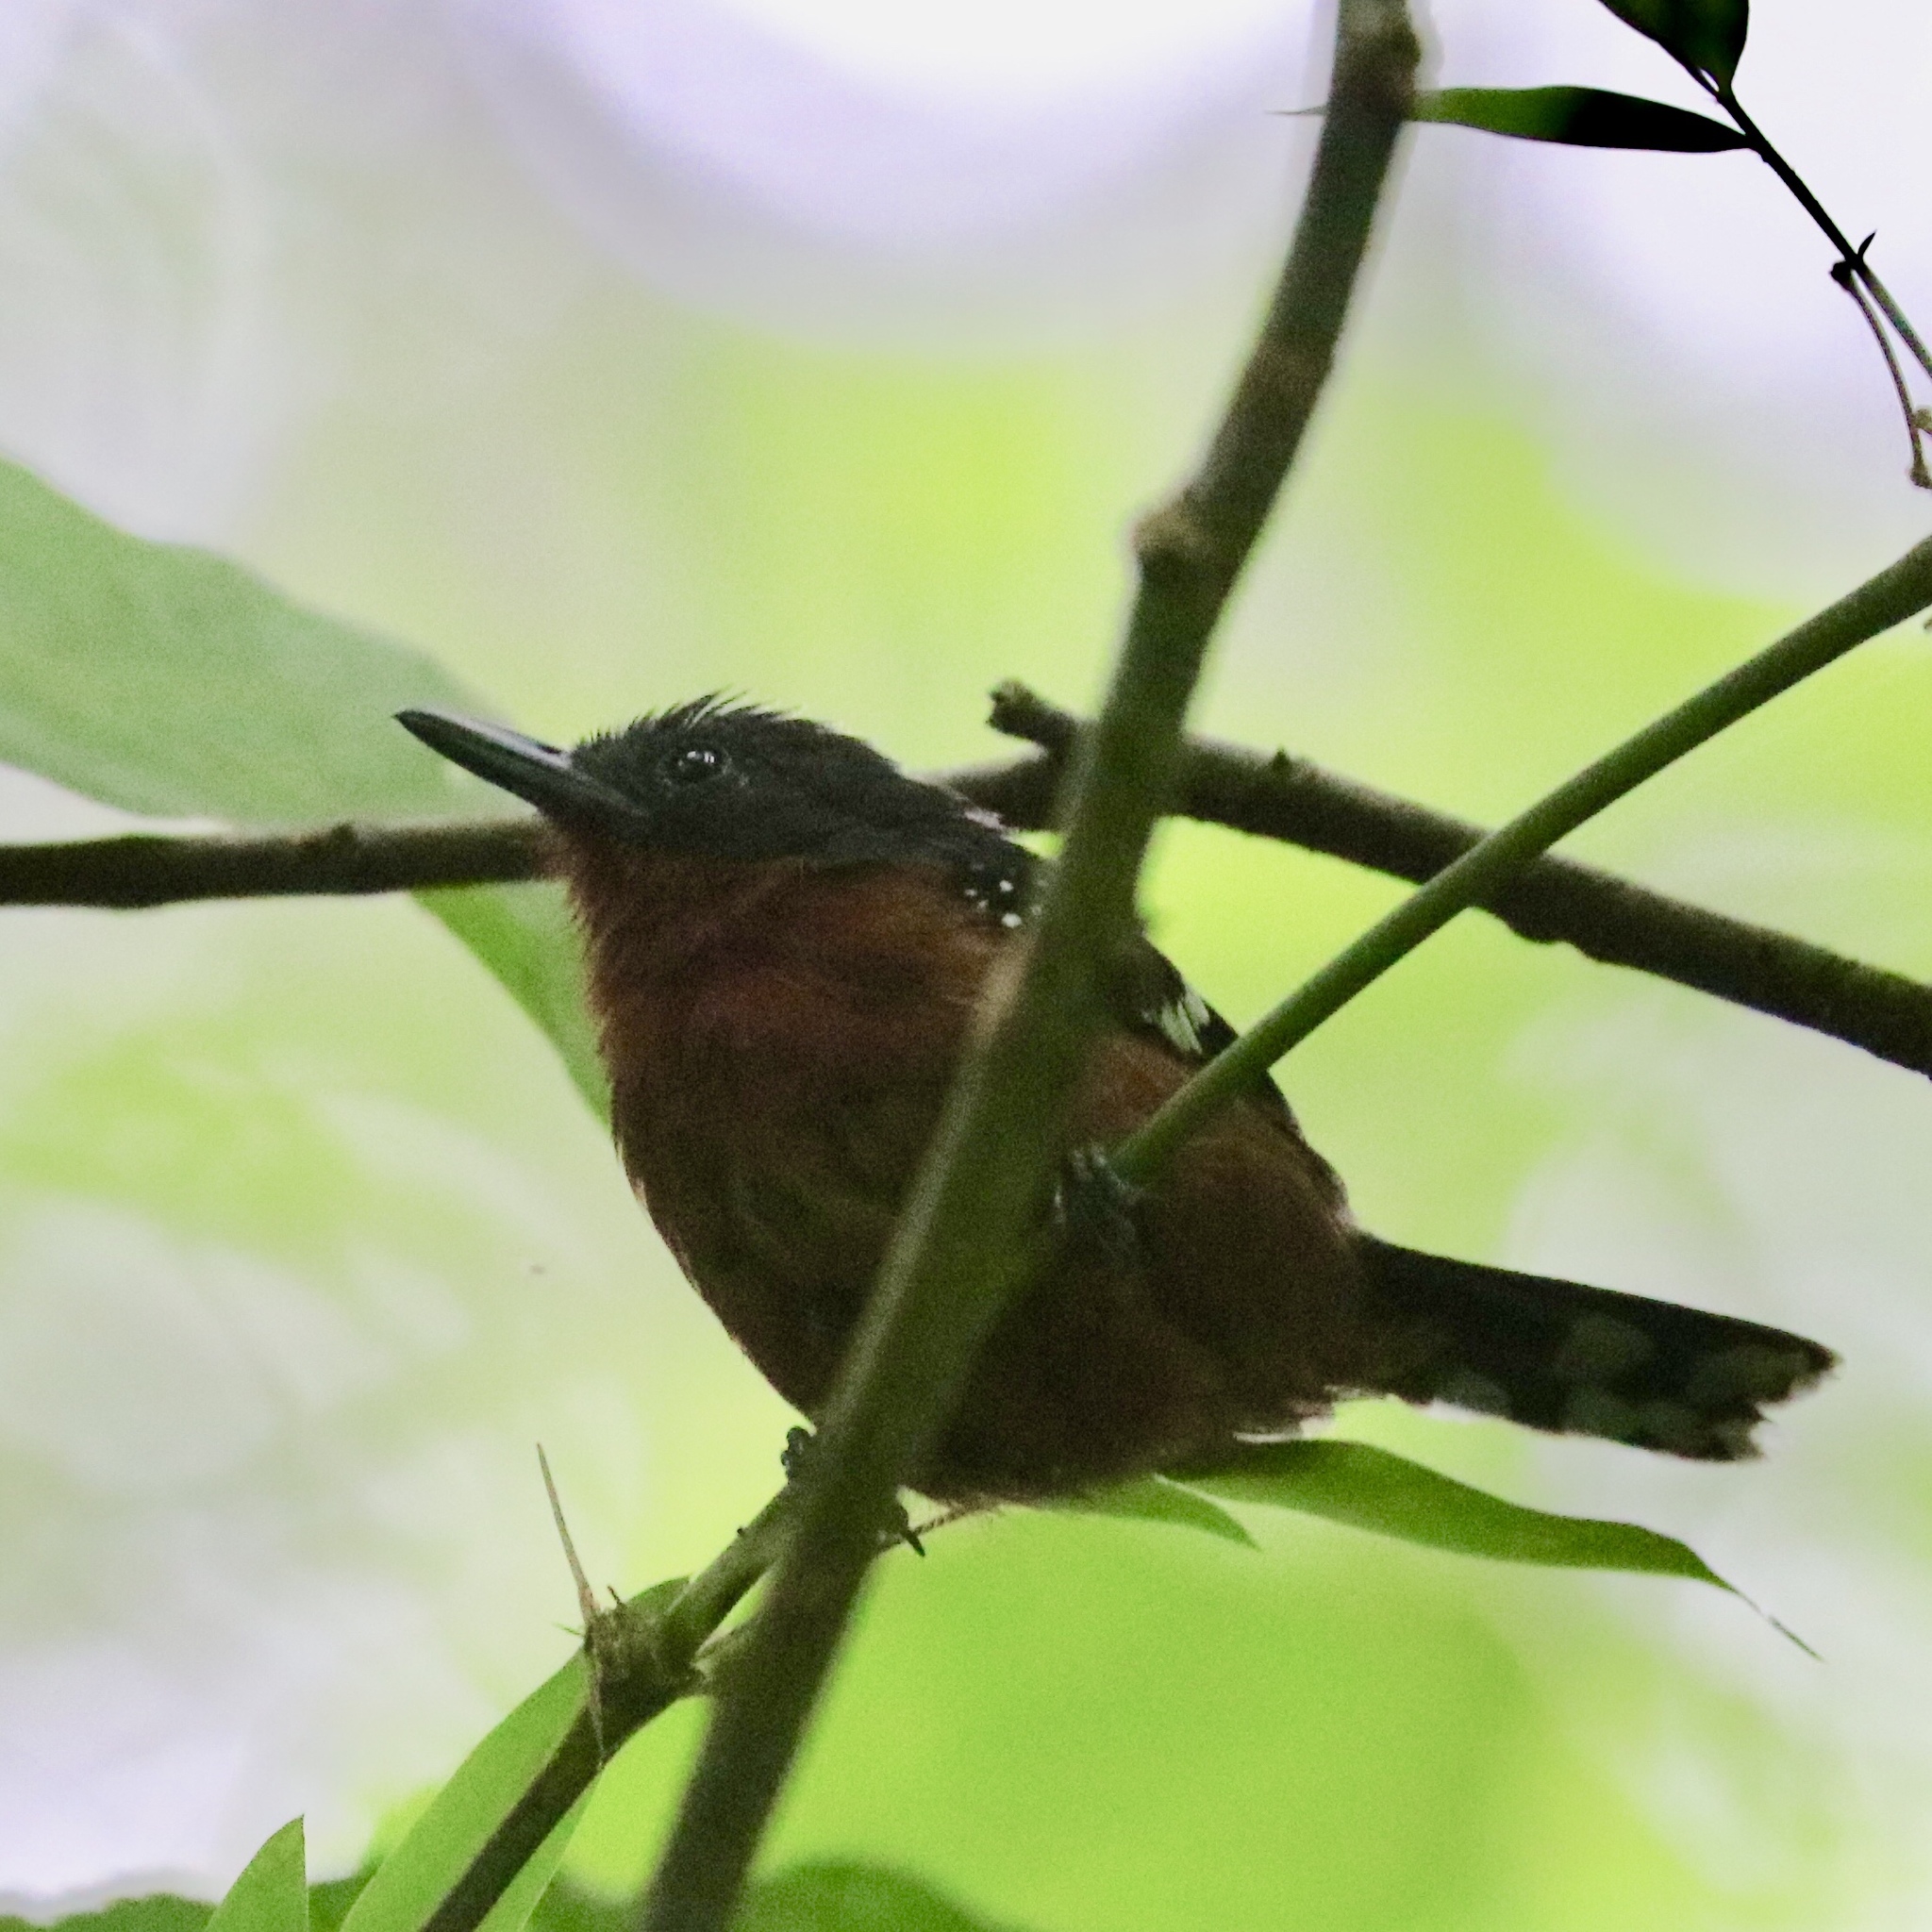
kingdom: Animalia
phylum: Chordata
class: Aves
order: Passeriformes
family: Thamnophilidae
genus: Microrhopias
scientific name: Microrhopias quixensis
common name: Dot-winged antwren
